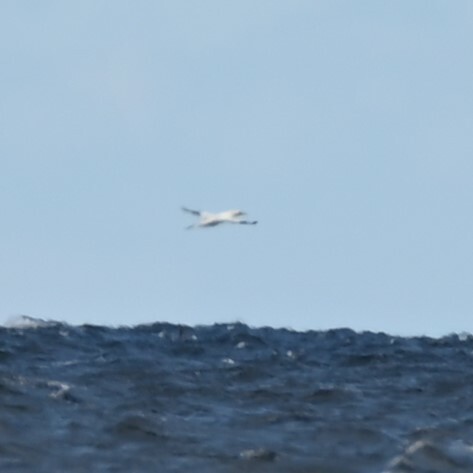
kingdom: Animalia
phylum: Chordata
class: Aves
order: Suliformes
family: Sulidae
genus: Morus
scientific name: Morus bassanus
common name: Northern gannet
